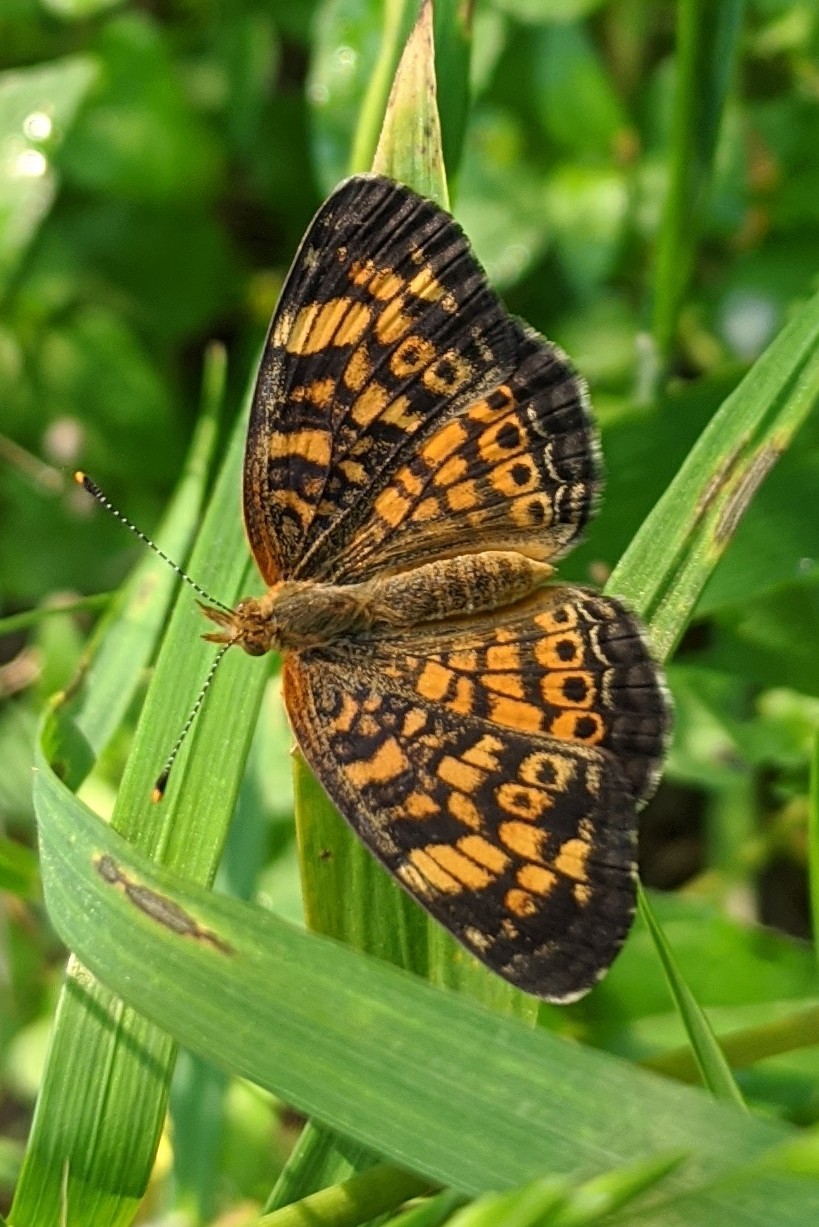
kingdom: Animalia
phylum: Arthropoda
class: Insecta
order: Lepidoptera
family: Nymphalidae
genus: Phyciodes
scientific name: Phyciodes tharos
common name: Pearl crescent
